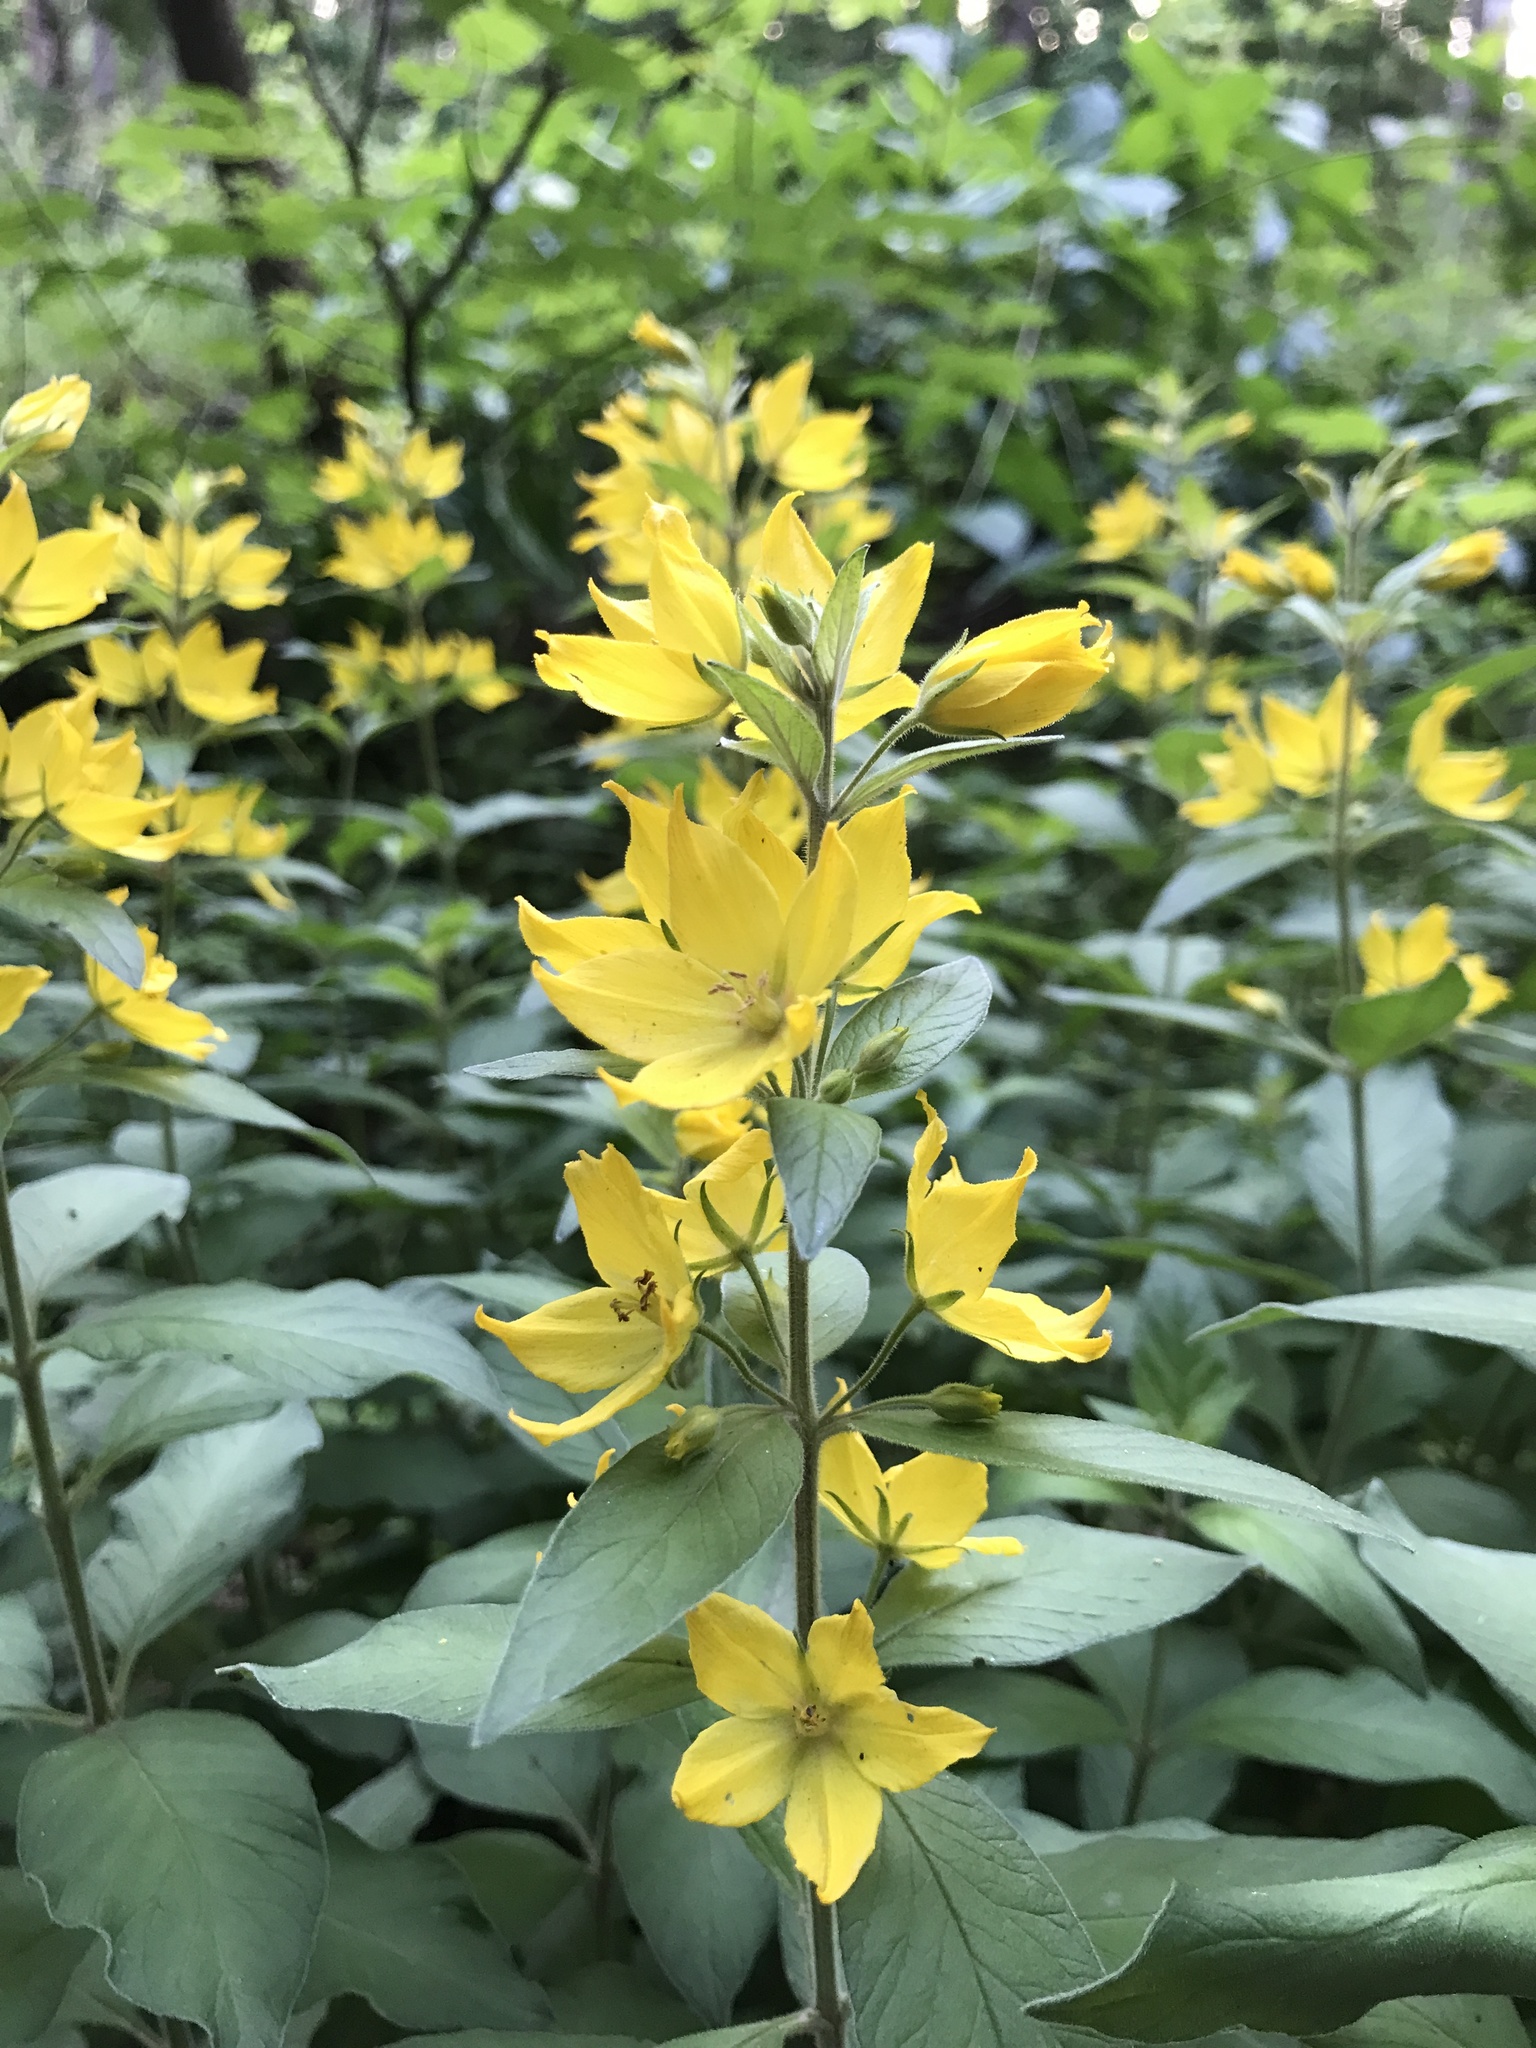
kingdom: Plantae
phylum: Tracheophyta
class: Magnoliopsida
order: Ericales
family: Primulaceae
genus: Lysimachia
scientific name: Lysimachia punctata
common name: Dotted loosestrife
